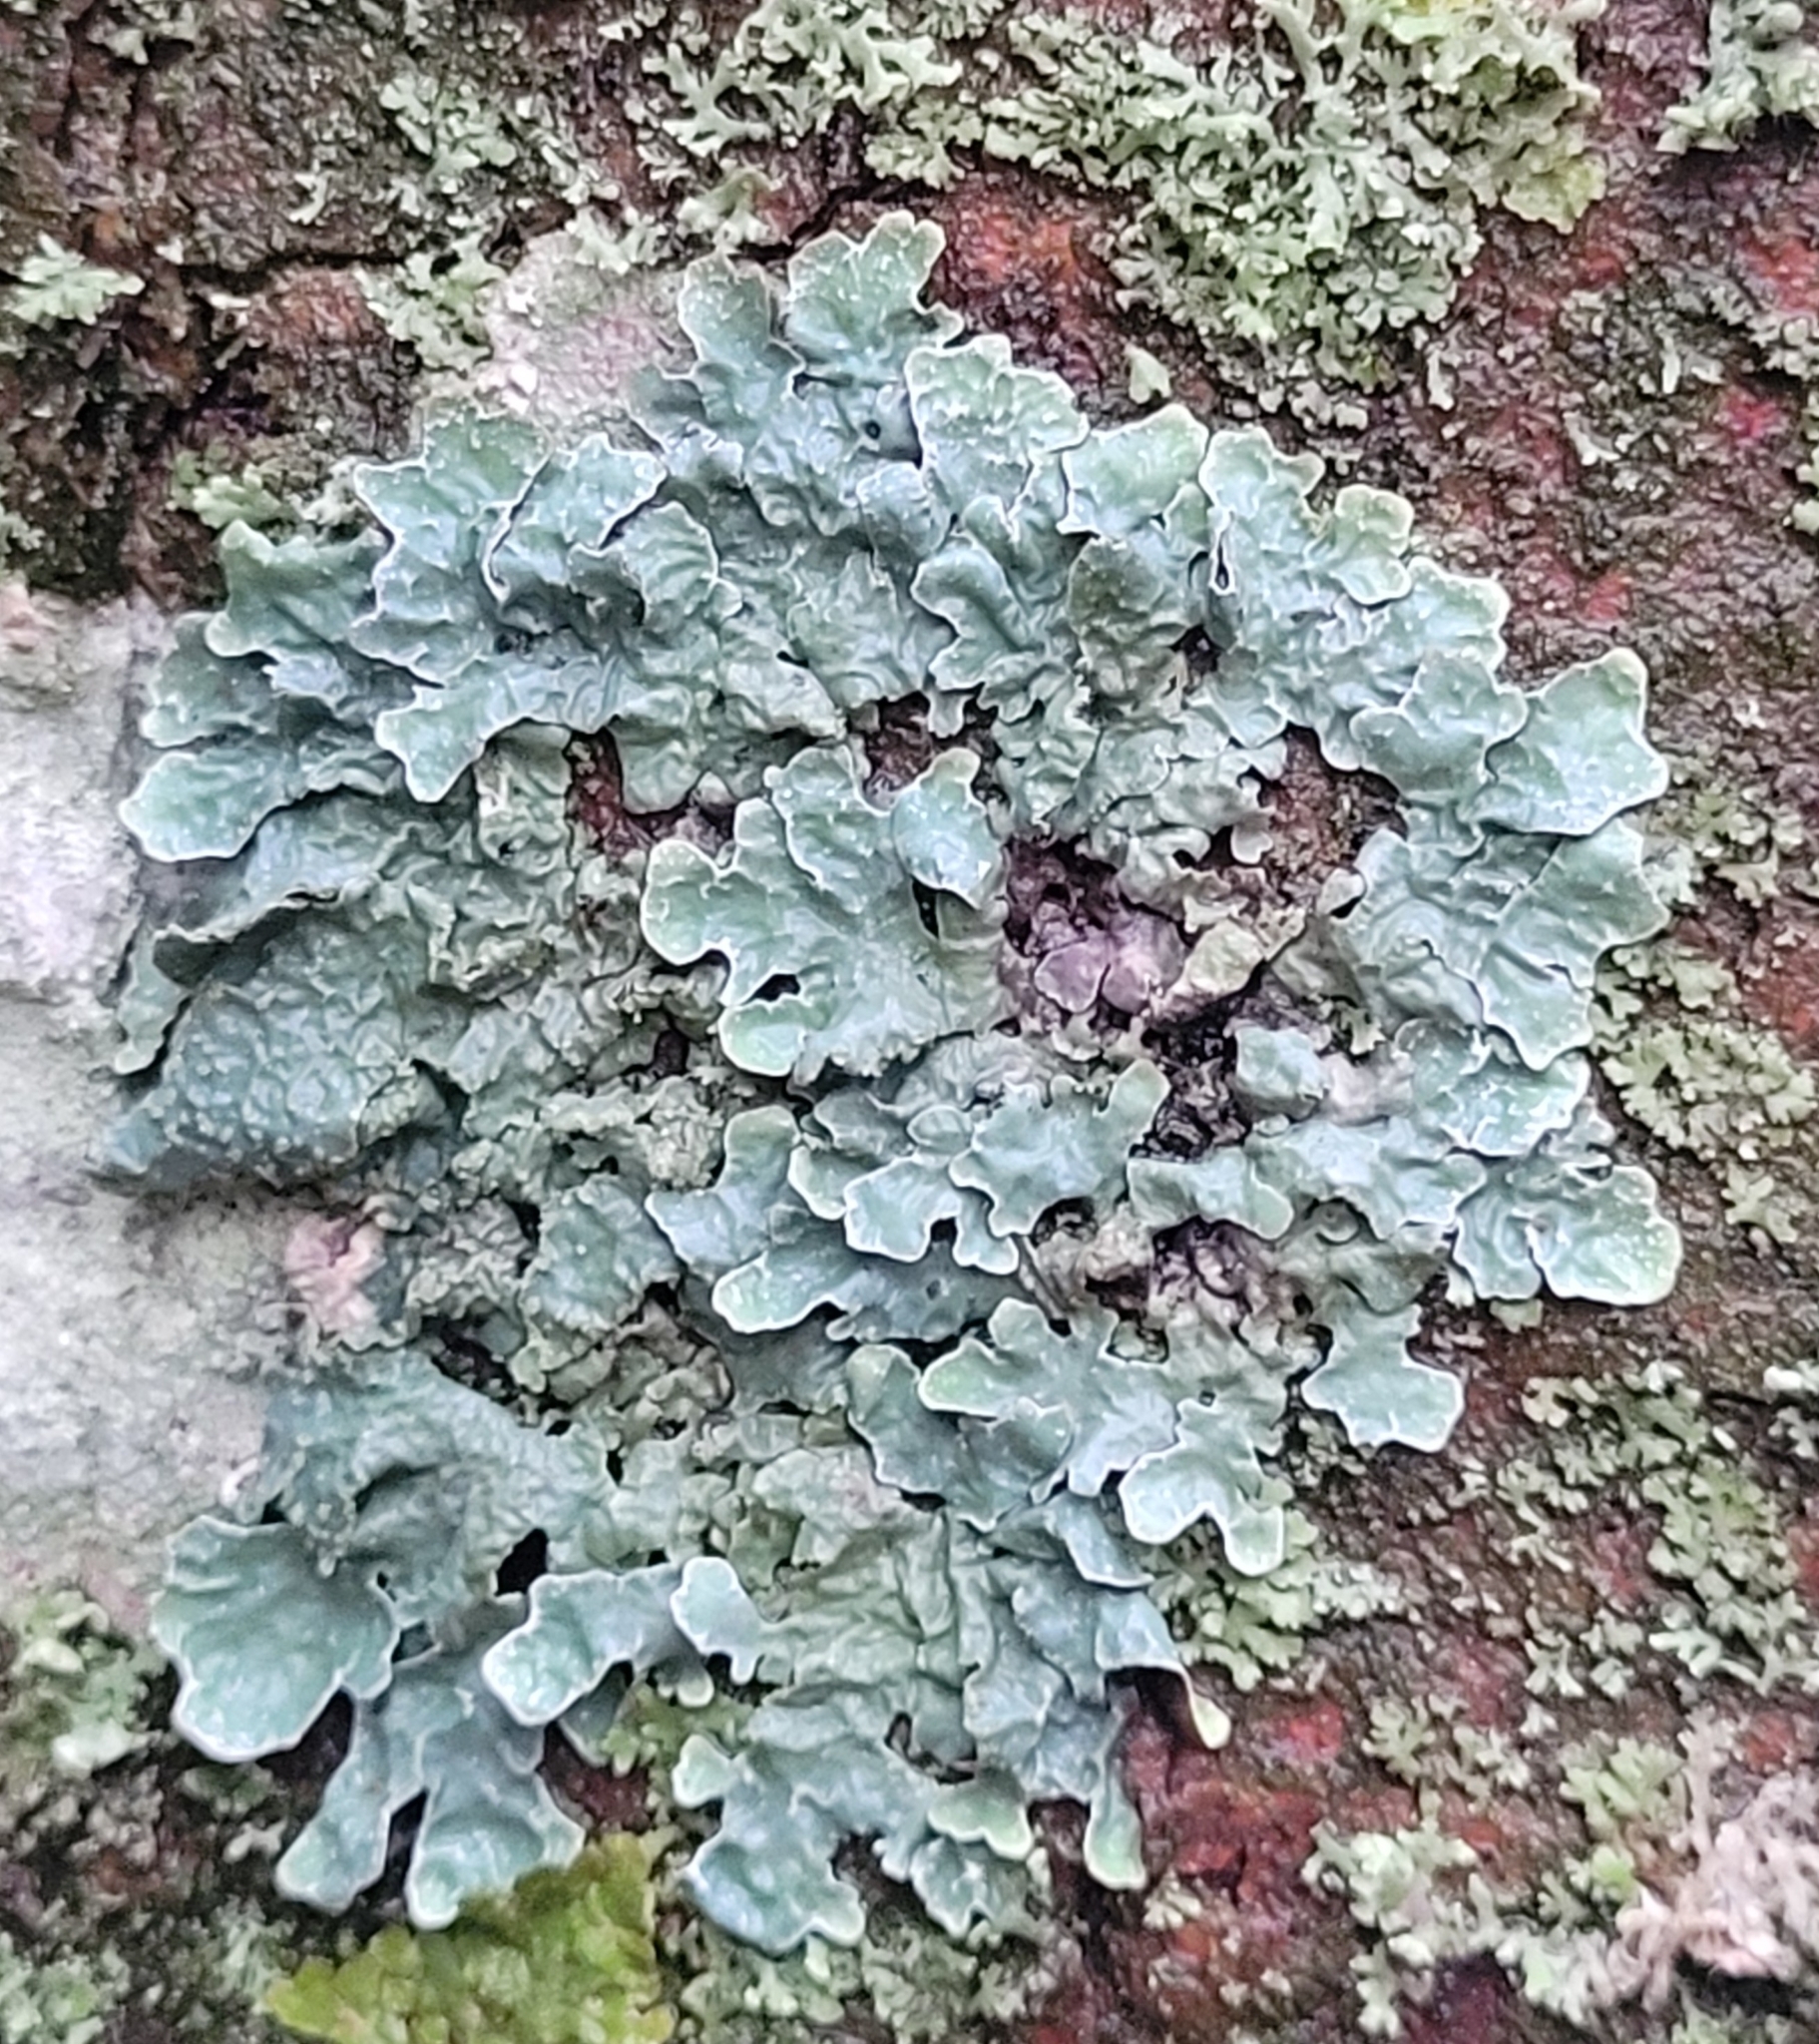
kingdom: Fungi
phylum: Ascomycota
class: Lecanoromycetes
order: Lecanorales
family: Parmeliaceae
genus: Parmelia
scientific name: Parmelia sulcata
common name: Netted shield lichen
